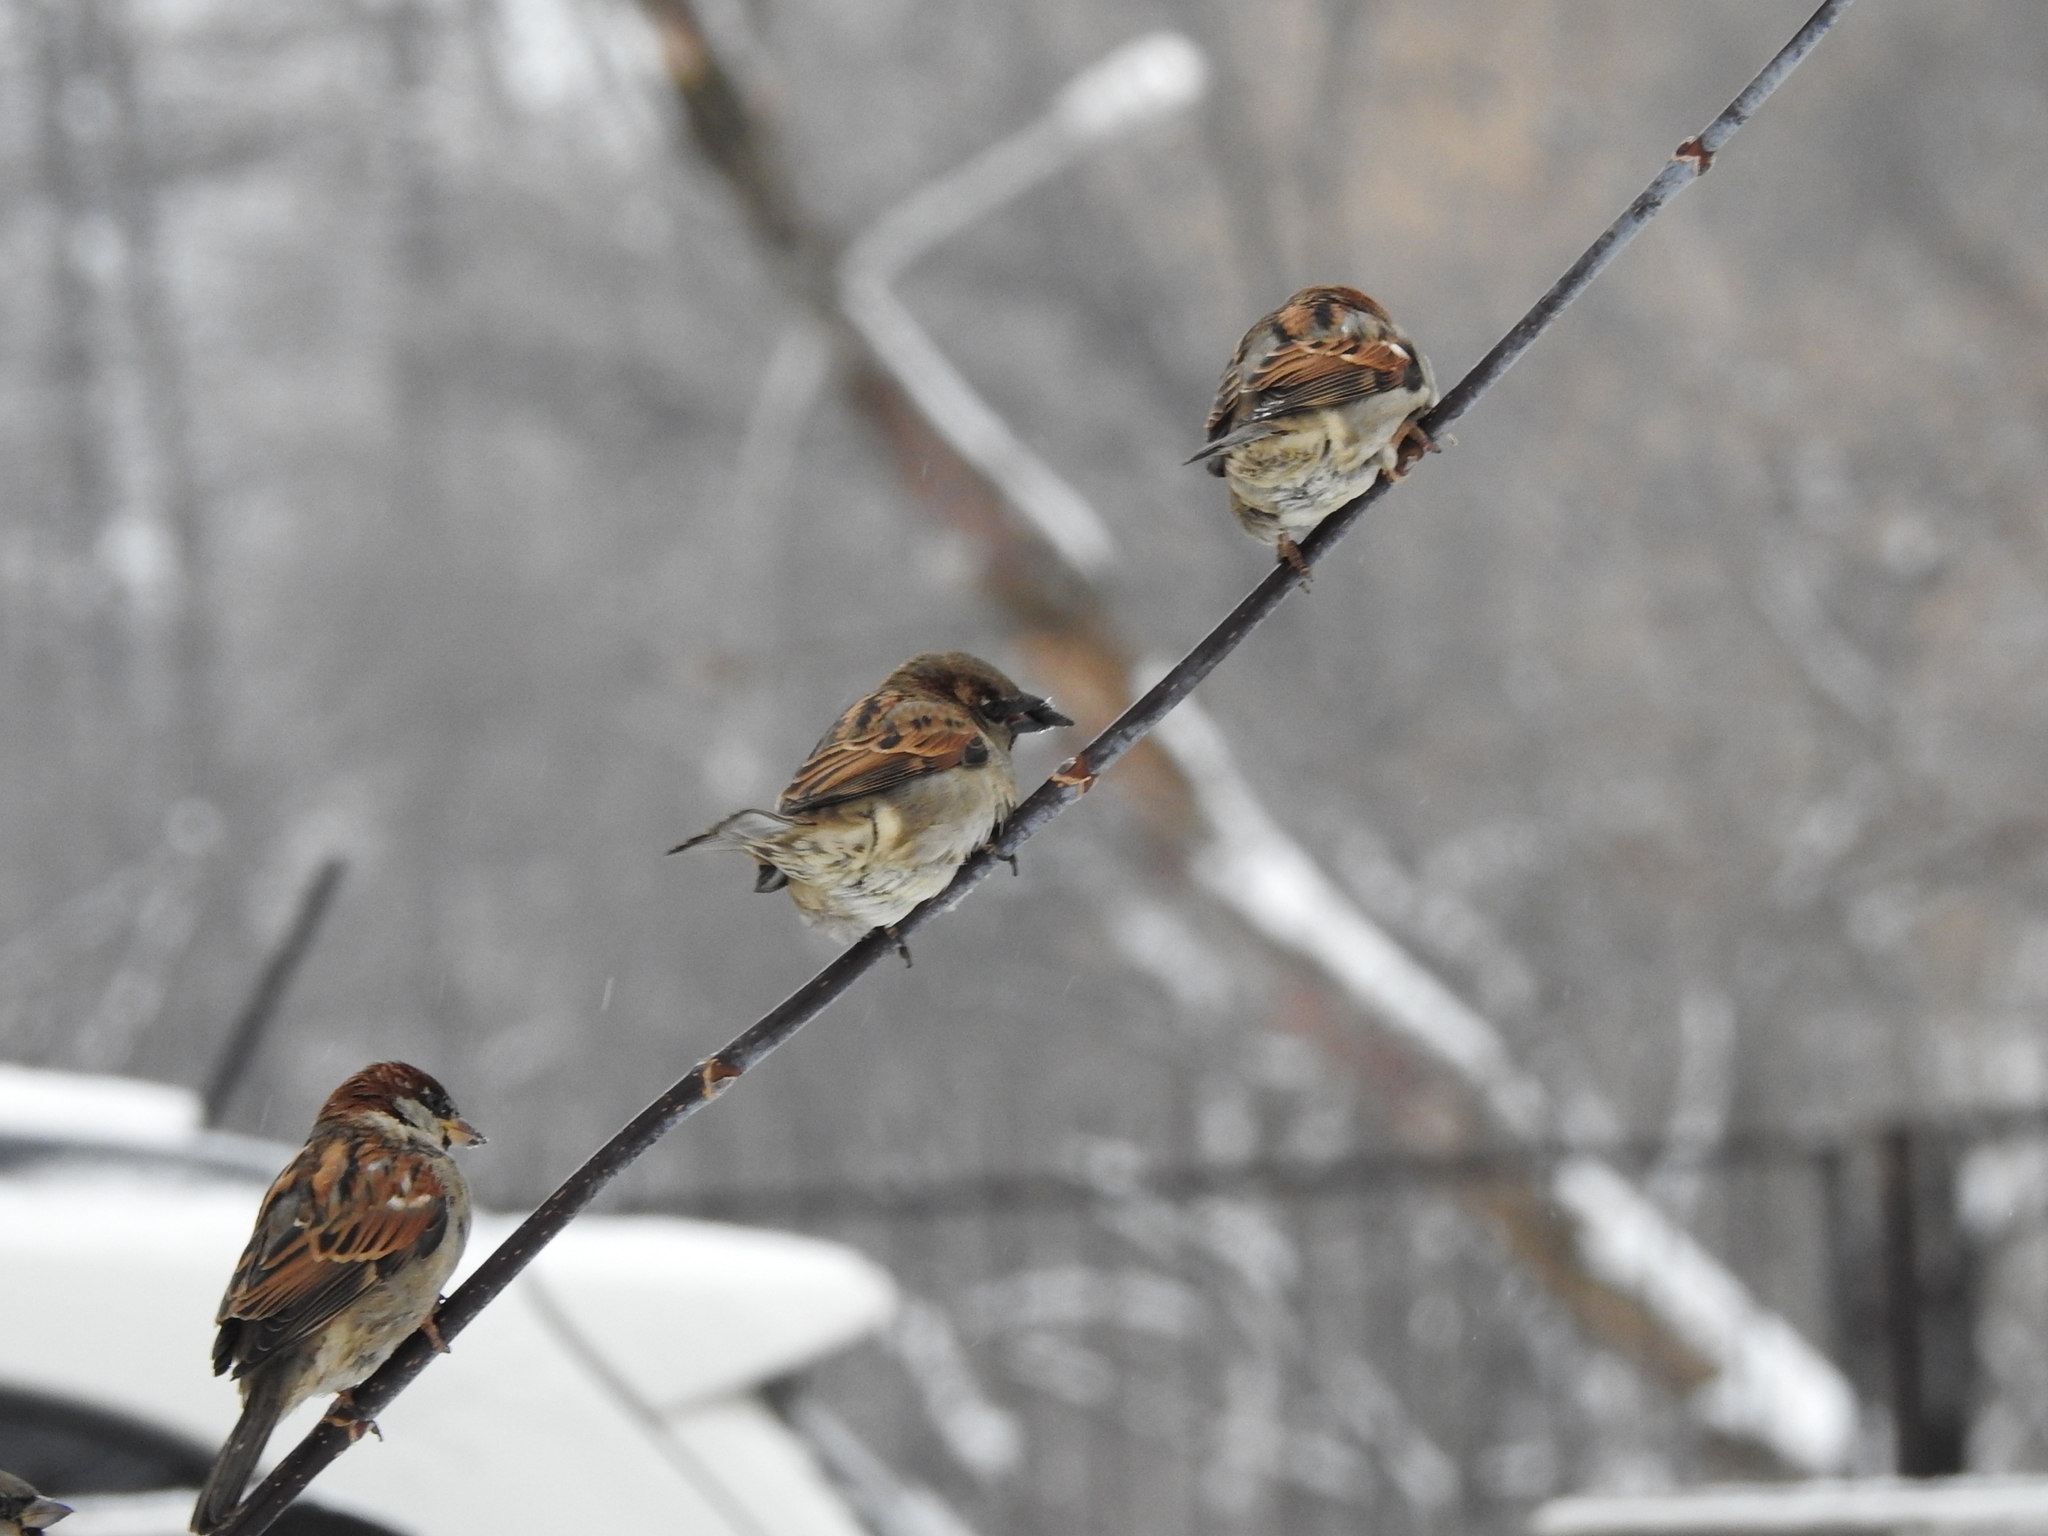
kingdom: Animalia
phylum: Chordata
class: Aves
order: Passeriformes
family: Passeridae
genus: Passer
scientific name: Passer domesticus
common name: House sparrow
